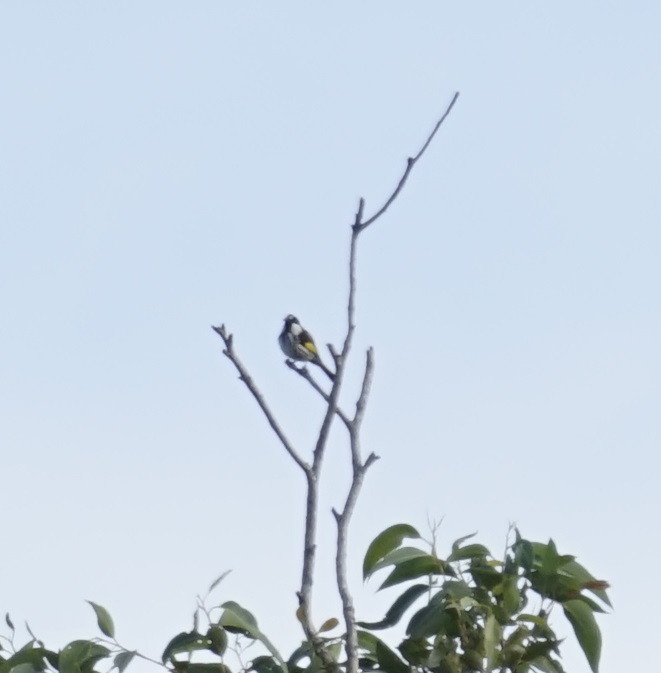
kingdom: Animalia
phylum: Chordata
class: Aves
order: Passeriformes
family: Meliphagidae
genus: Phylidonyris
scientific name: Phylidonyris niger
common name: White-cheeked honeyeater
